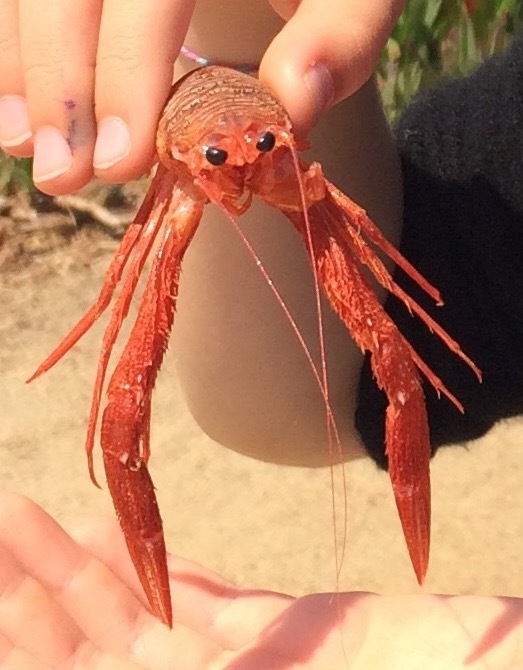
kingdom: Animalia
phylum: Arthropoda
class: Malacostraca
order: Decapoda
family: Munididae
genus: Grimothea
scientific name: Grimothea planipes
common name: Pelagic red crab
